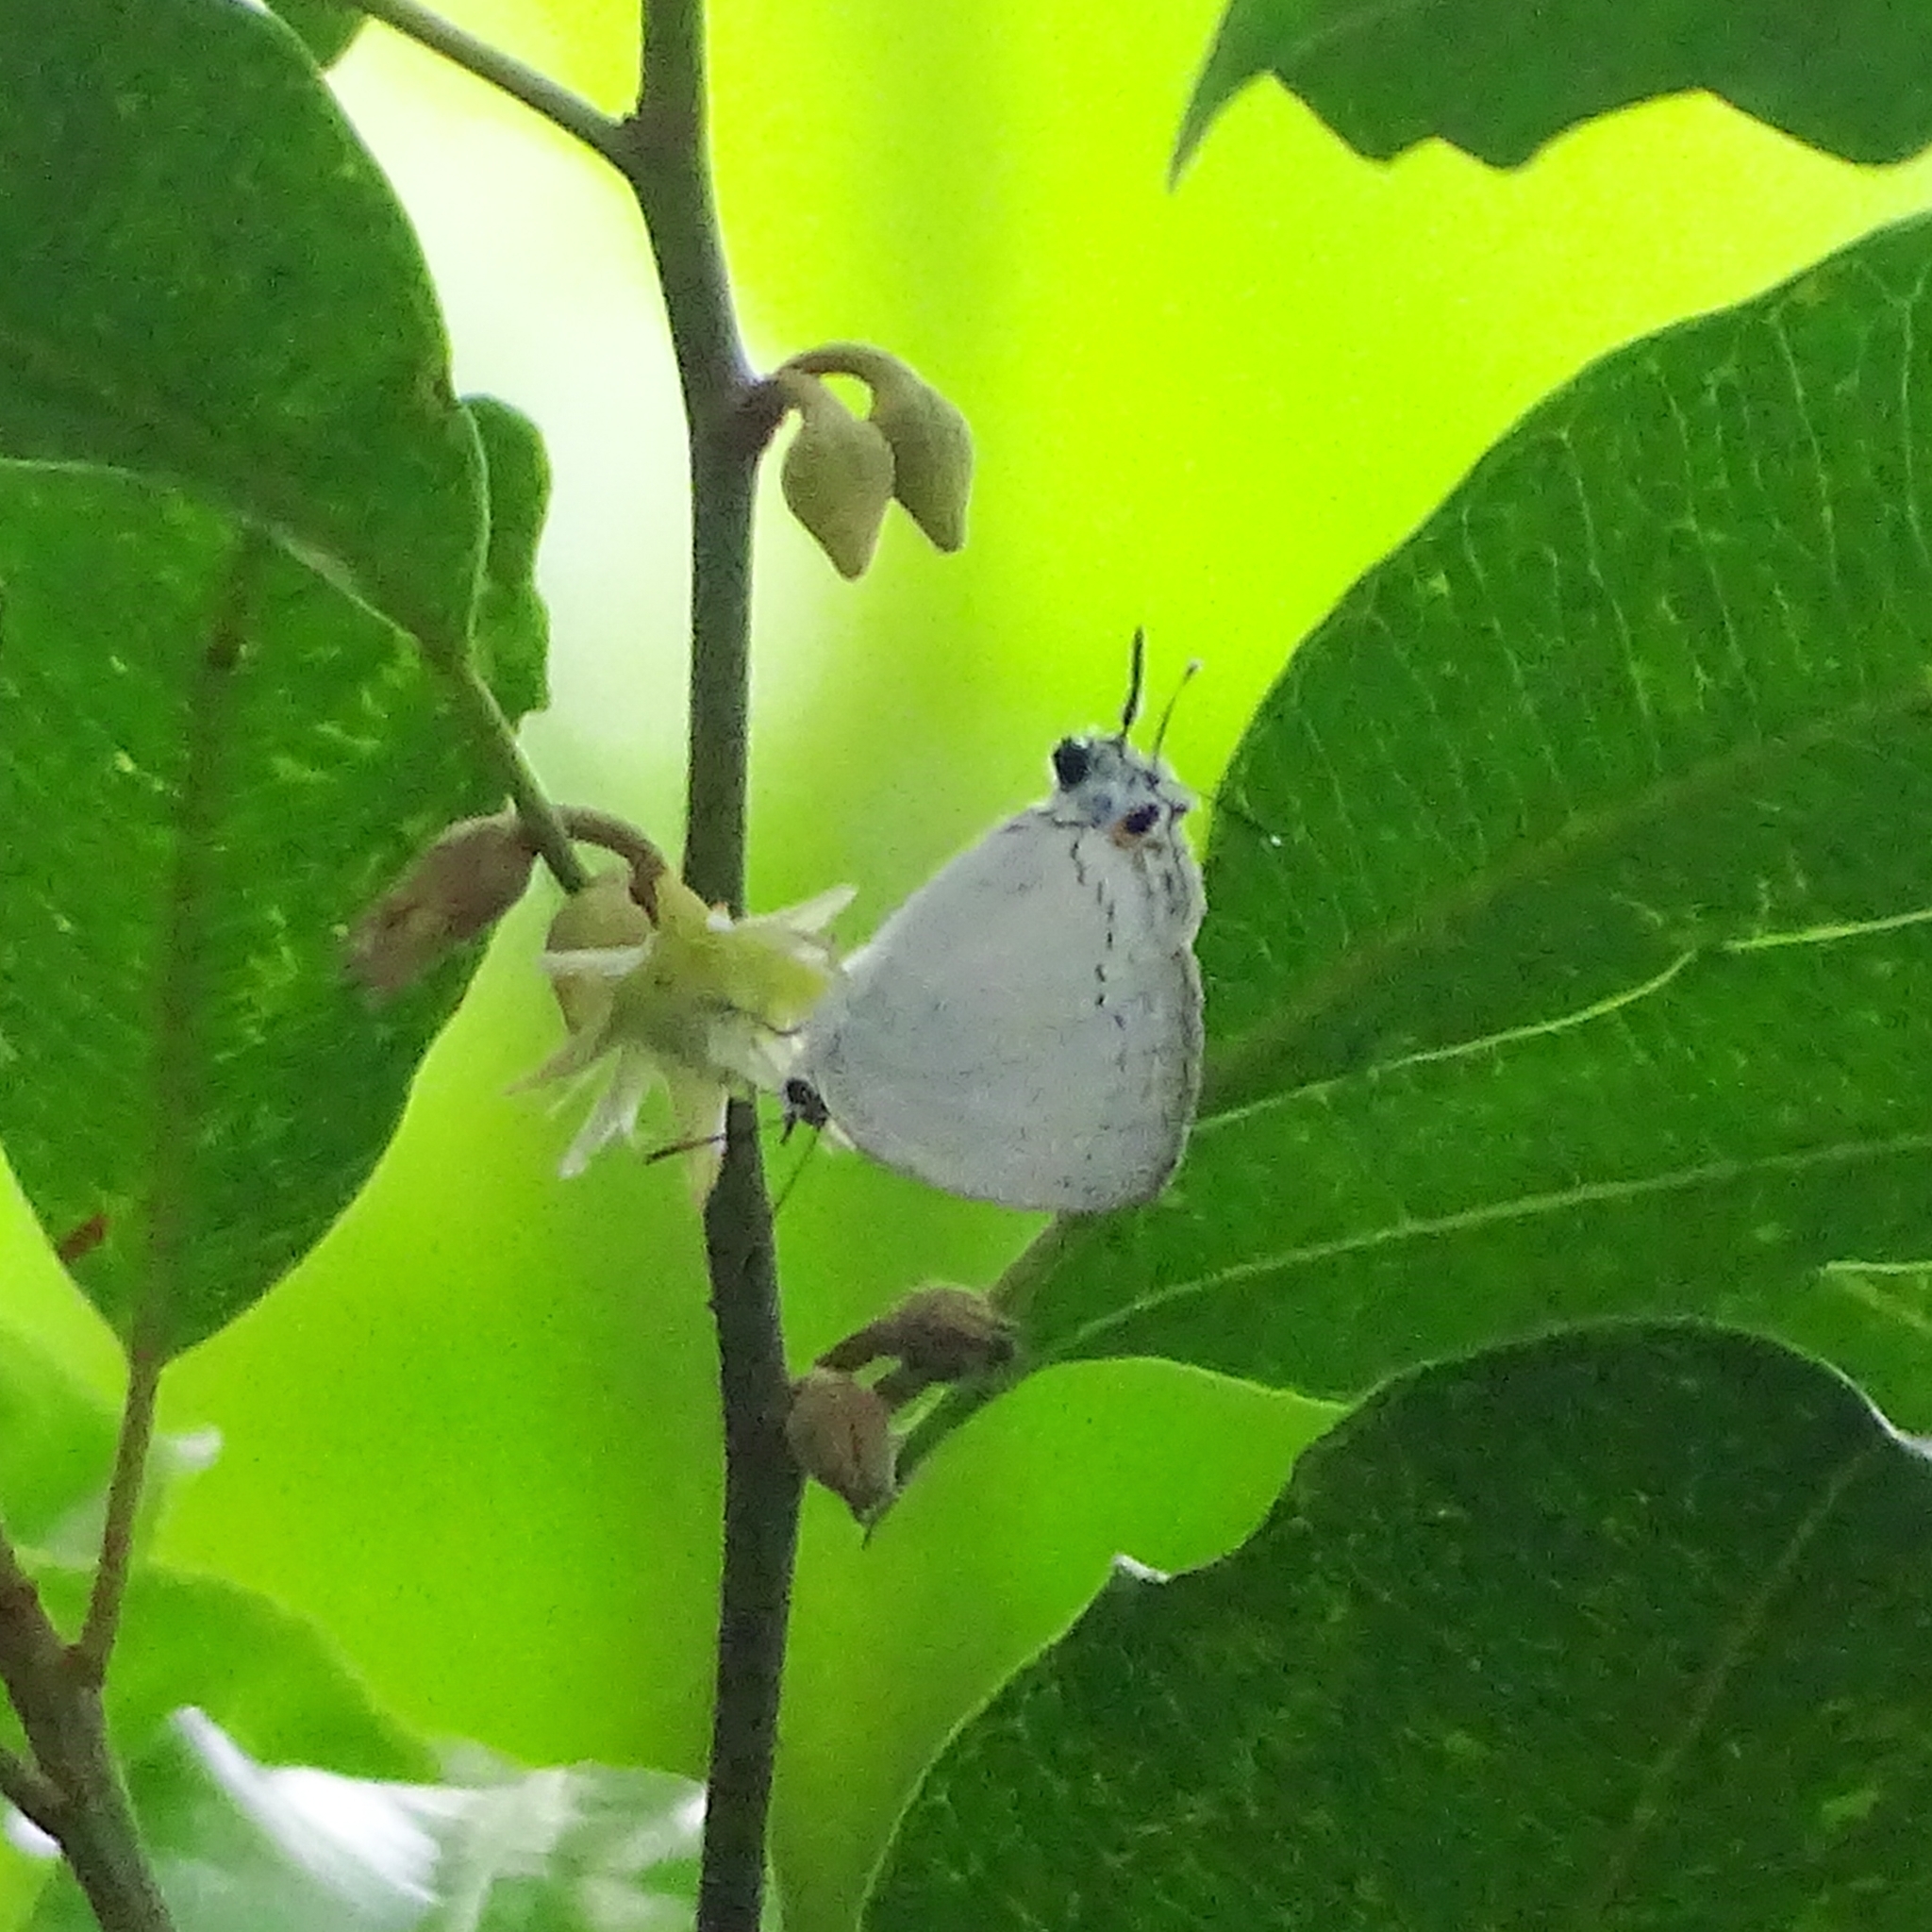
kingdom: Animalia
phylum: Arthropoda
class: Insecta
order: Lepidoptera
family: Lycaenidae
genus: Tajuria
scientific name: Tajuria cippus
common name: Peacock royal
